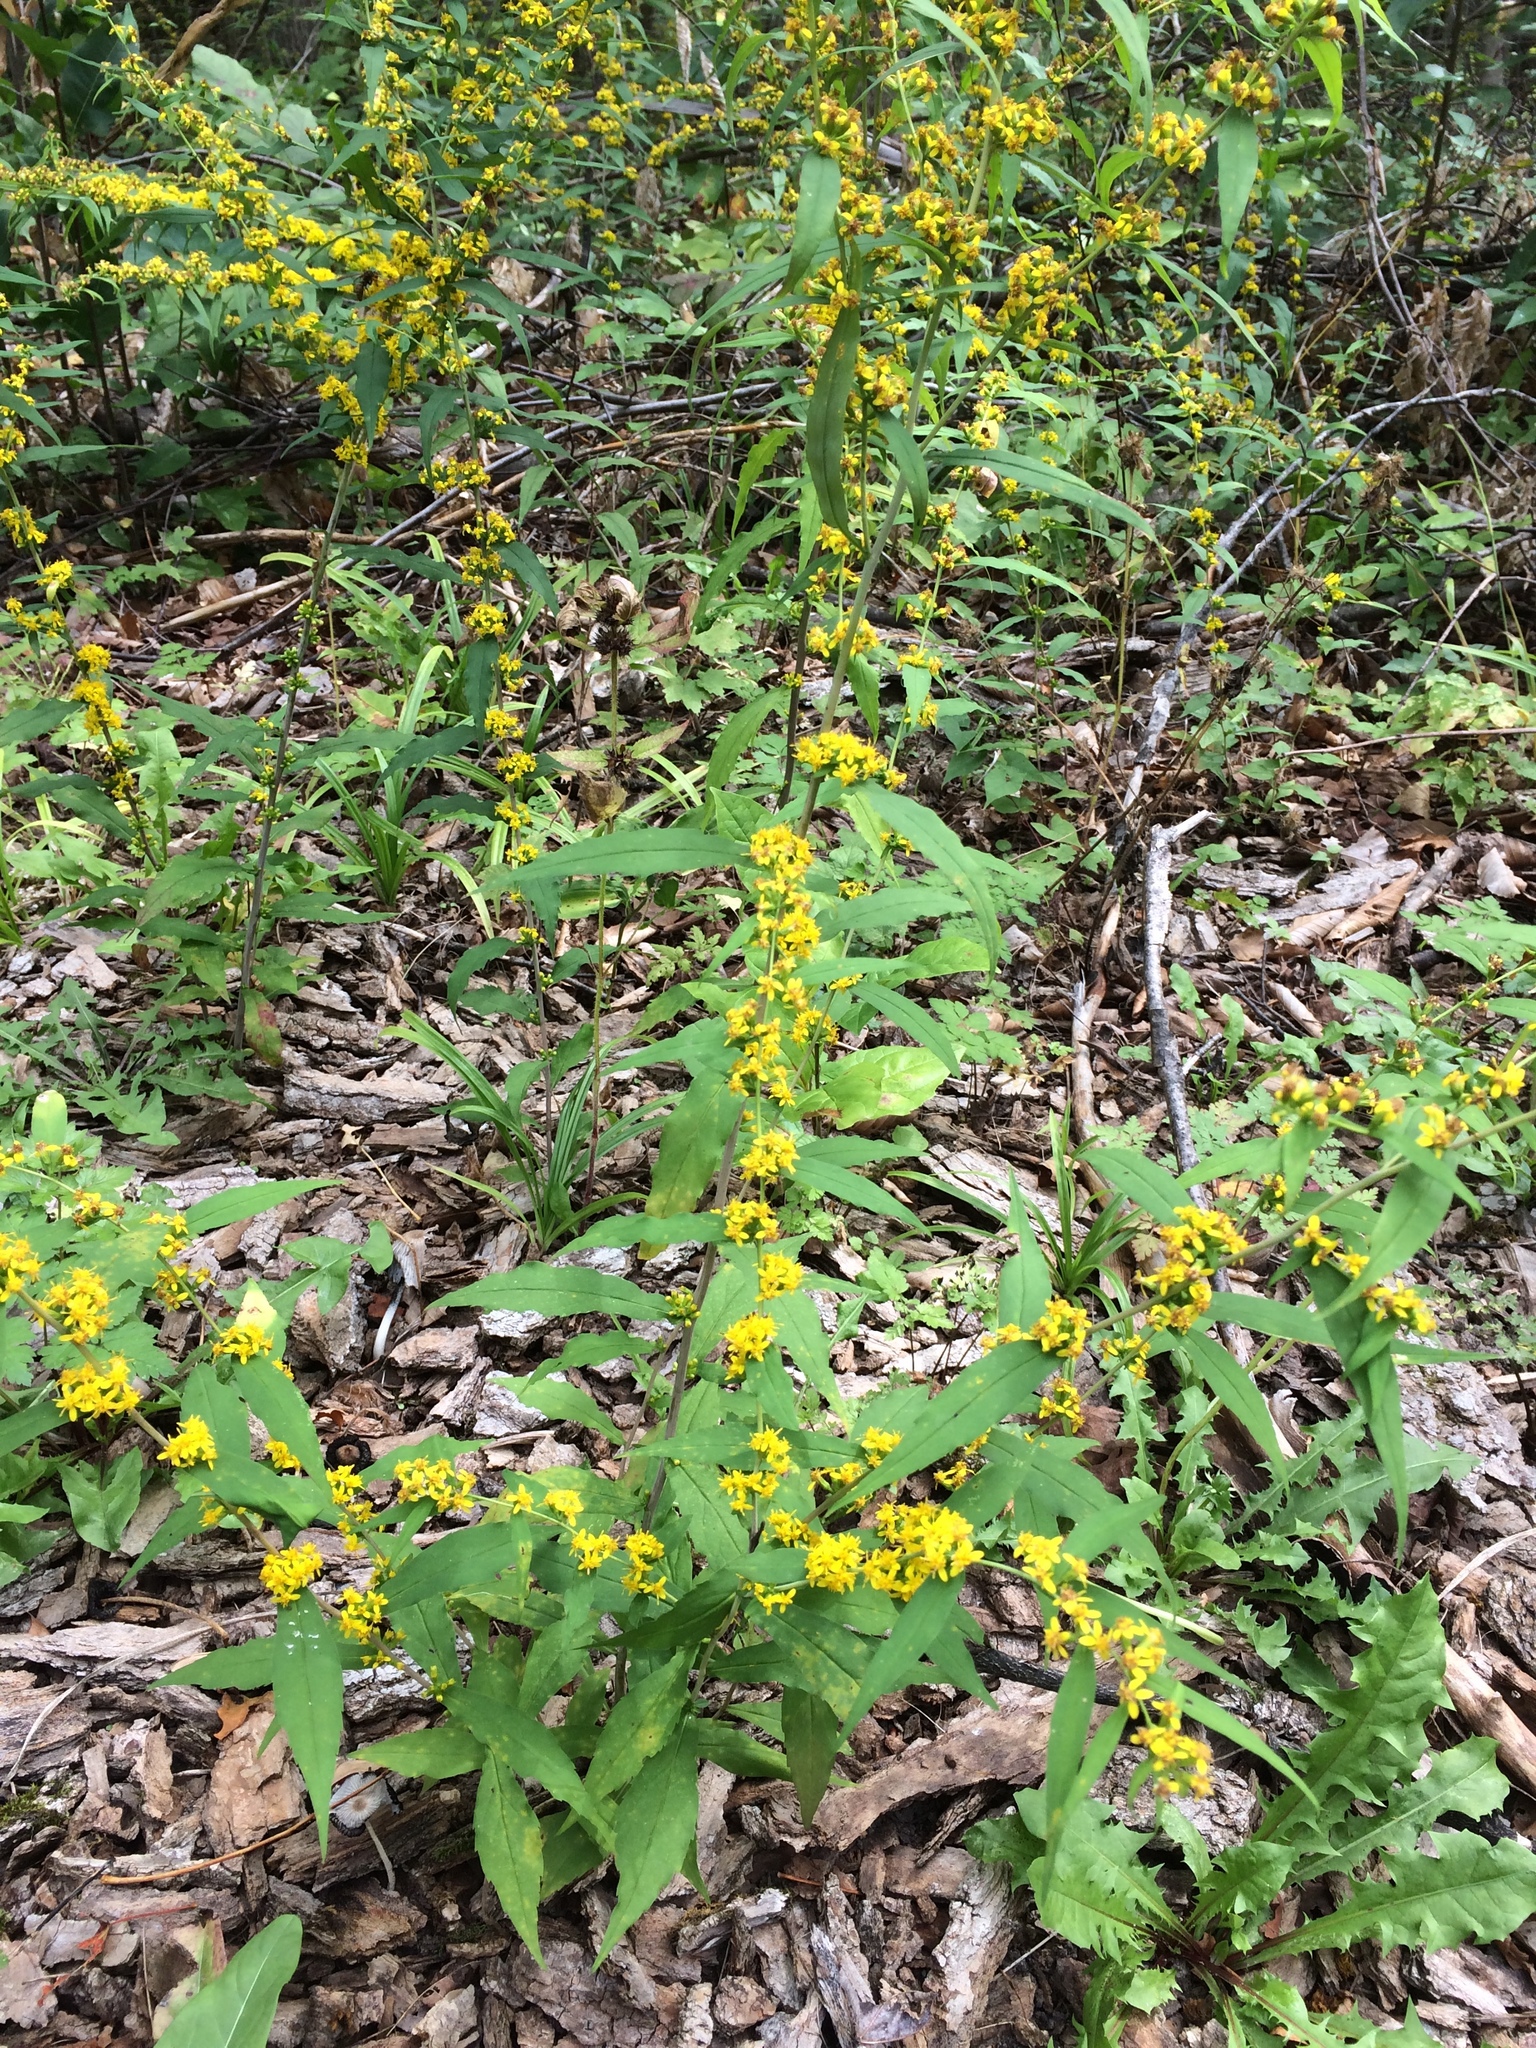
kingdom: Plantae
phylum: Tracheophyta
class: Magnoliopsida
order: Asterales
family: Asteraceae
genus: Solidago
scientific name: Solidago caesia
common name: Woodland goldenrod
